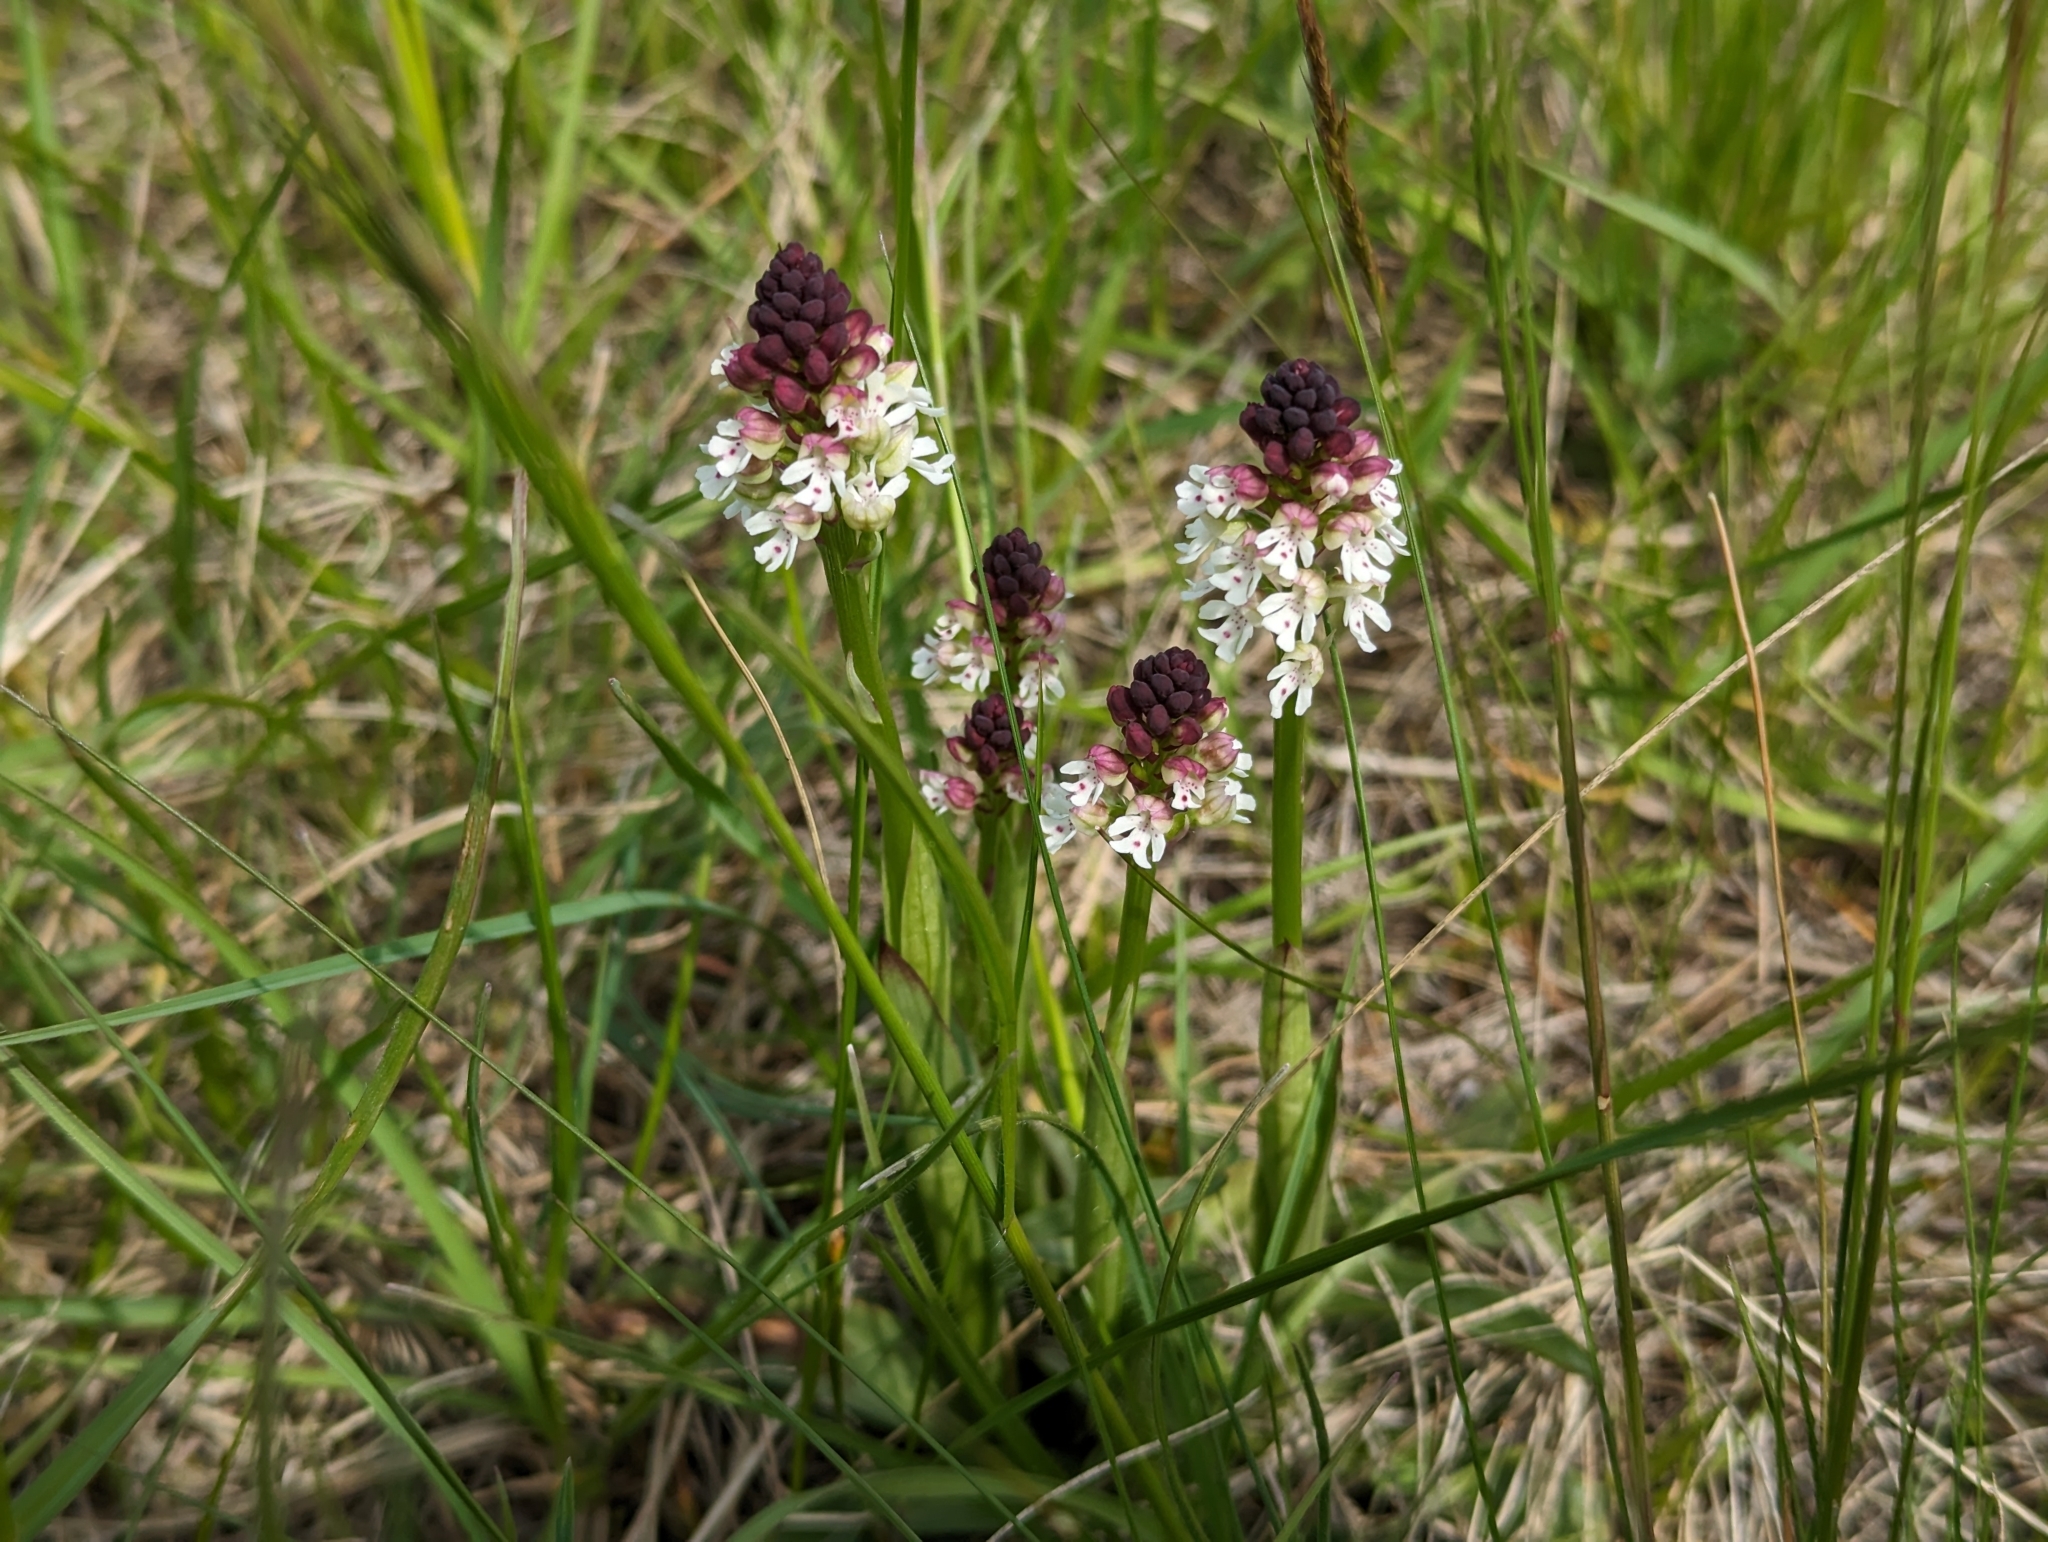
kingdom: Plantae
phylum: Tracheophyta
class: Liliopsida
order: Asparagales
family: Orchidaceae
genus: Neotinea
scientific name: Neotinea ustulata
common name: Burnt orchid
